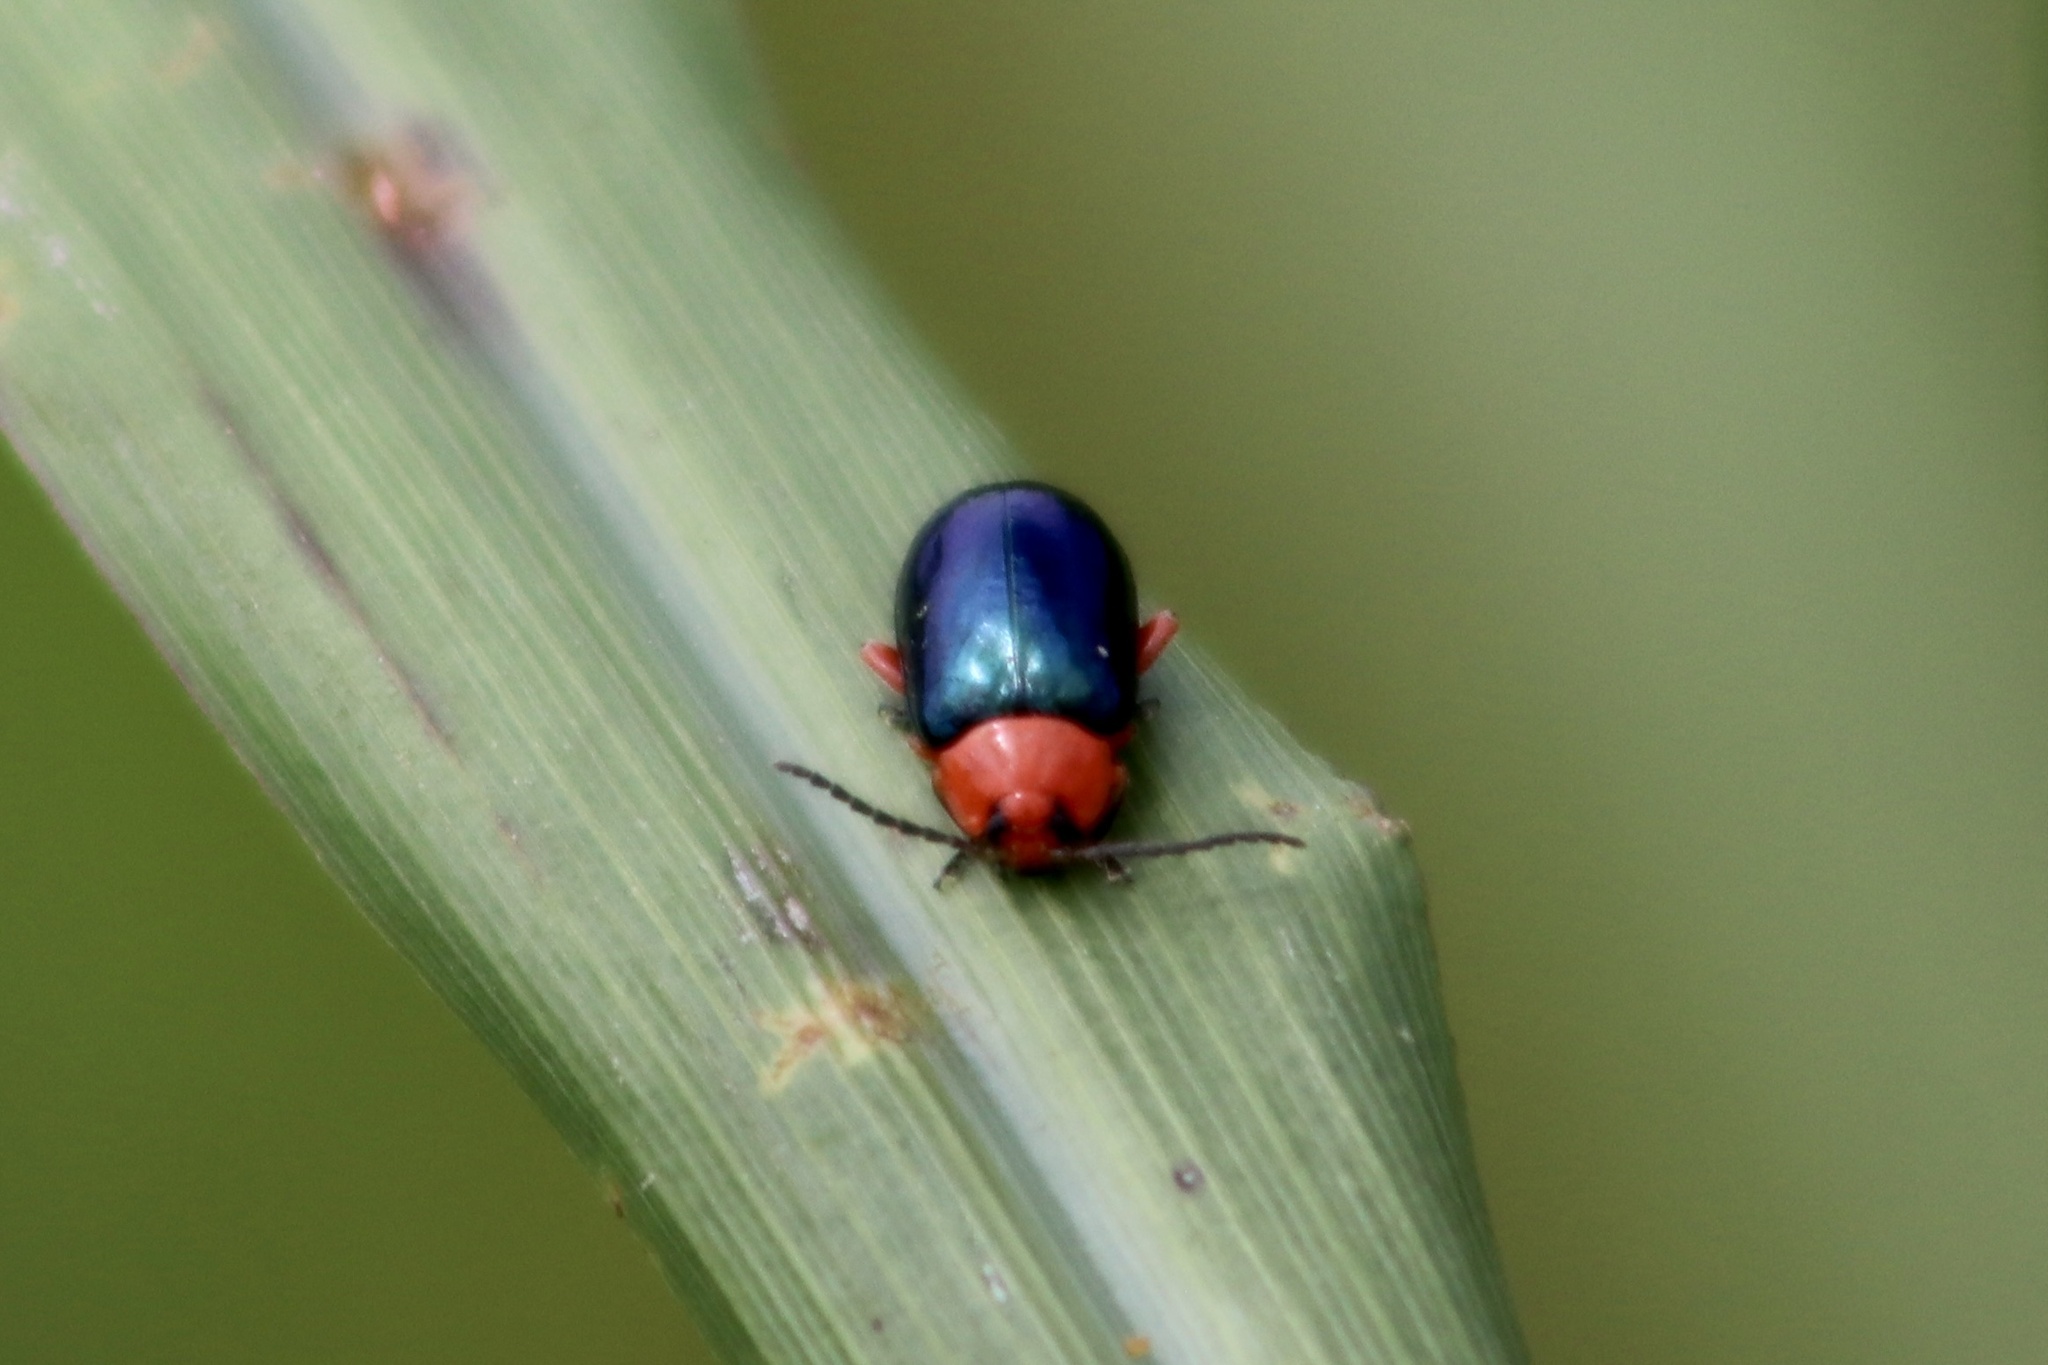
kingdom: Animalia
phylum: Arthropoda
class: Insecta
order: Coleoptera
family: Chrysomelidae
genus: Asphaera
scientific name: Asphaera lustrans
